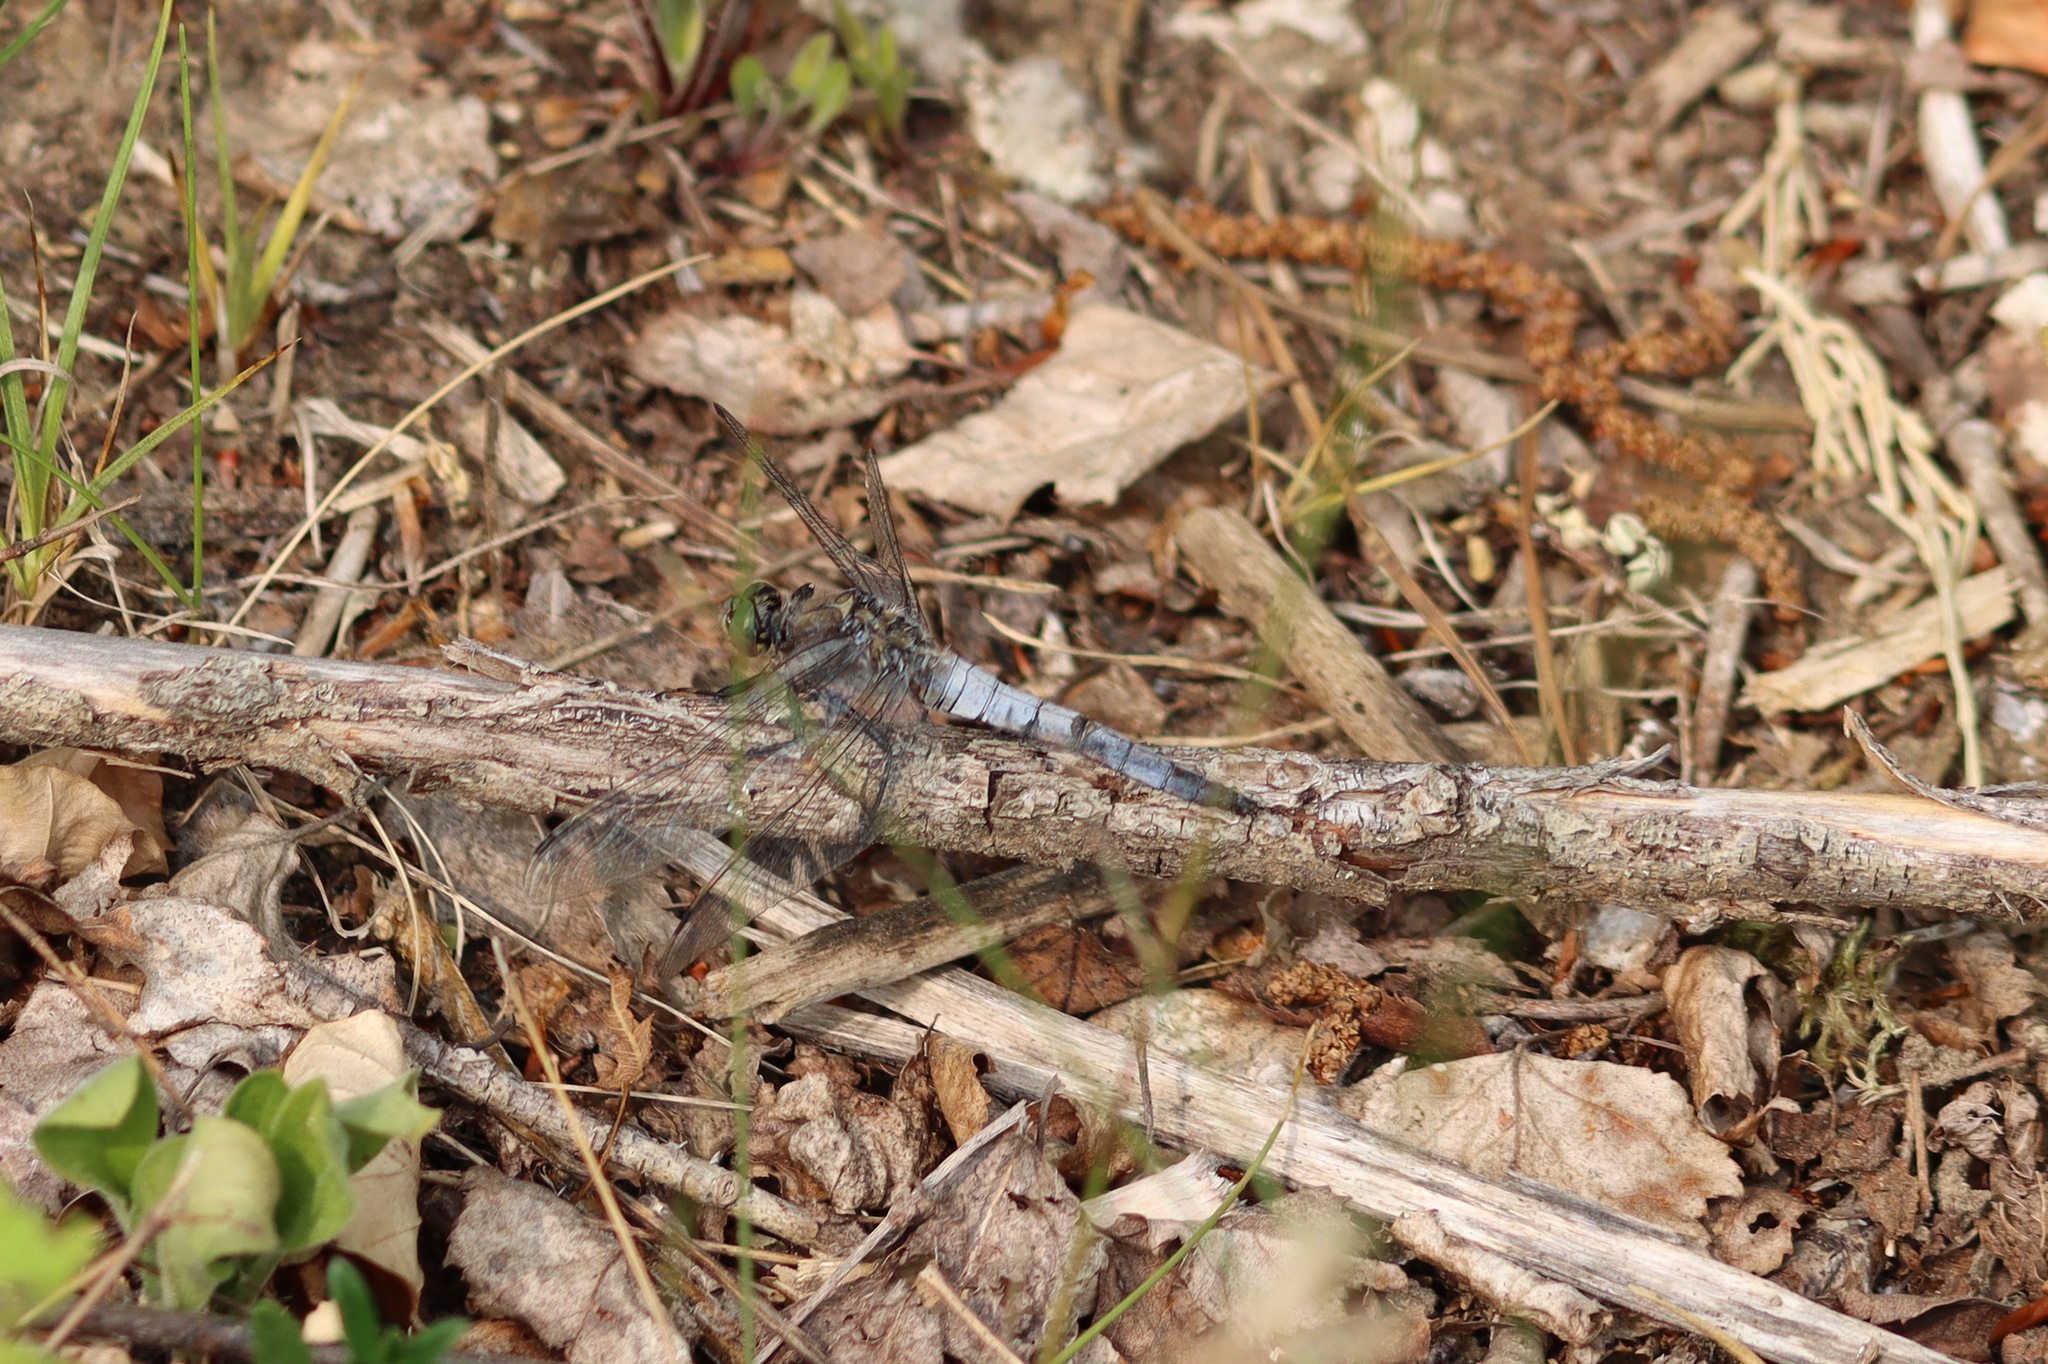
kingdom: Animalia
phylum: Arthropoda
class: Insecta
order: Odonata
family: Libellulidae
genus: Orthetrum
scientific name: Orthetrum cancellatum
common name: Black-tailed skimmer
